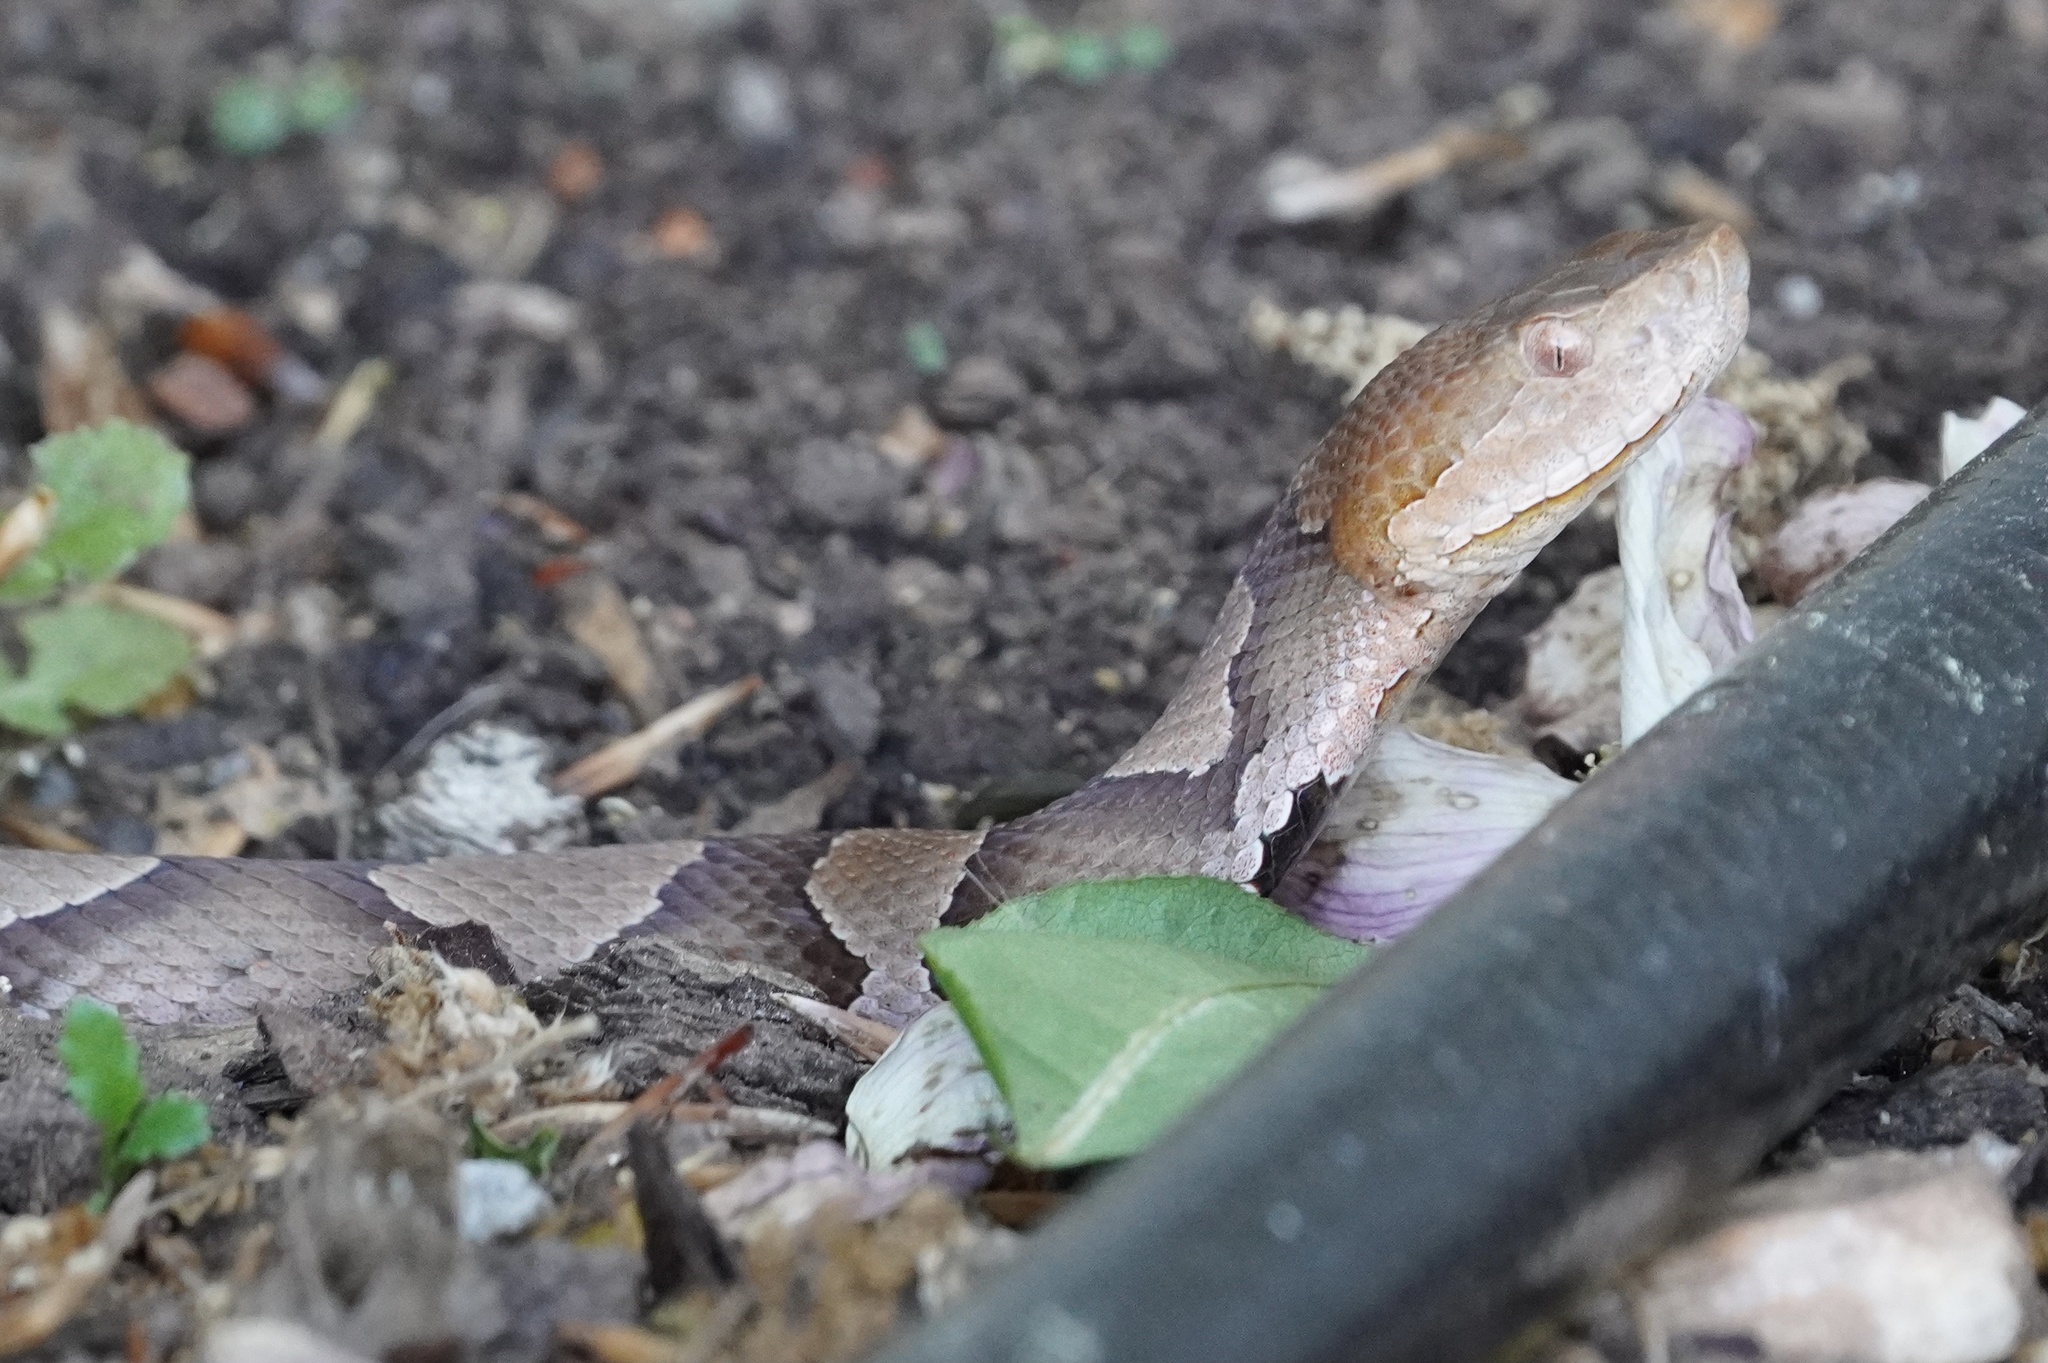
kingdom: Animalia
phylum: Chordata
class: Squamata
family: Viperidae
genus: Agkistrodon
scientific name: Agkistrodon contortrix
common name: Northern copperhead
